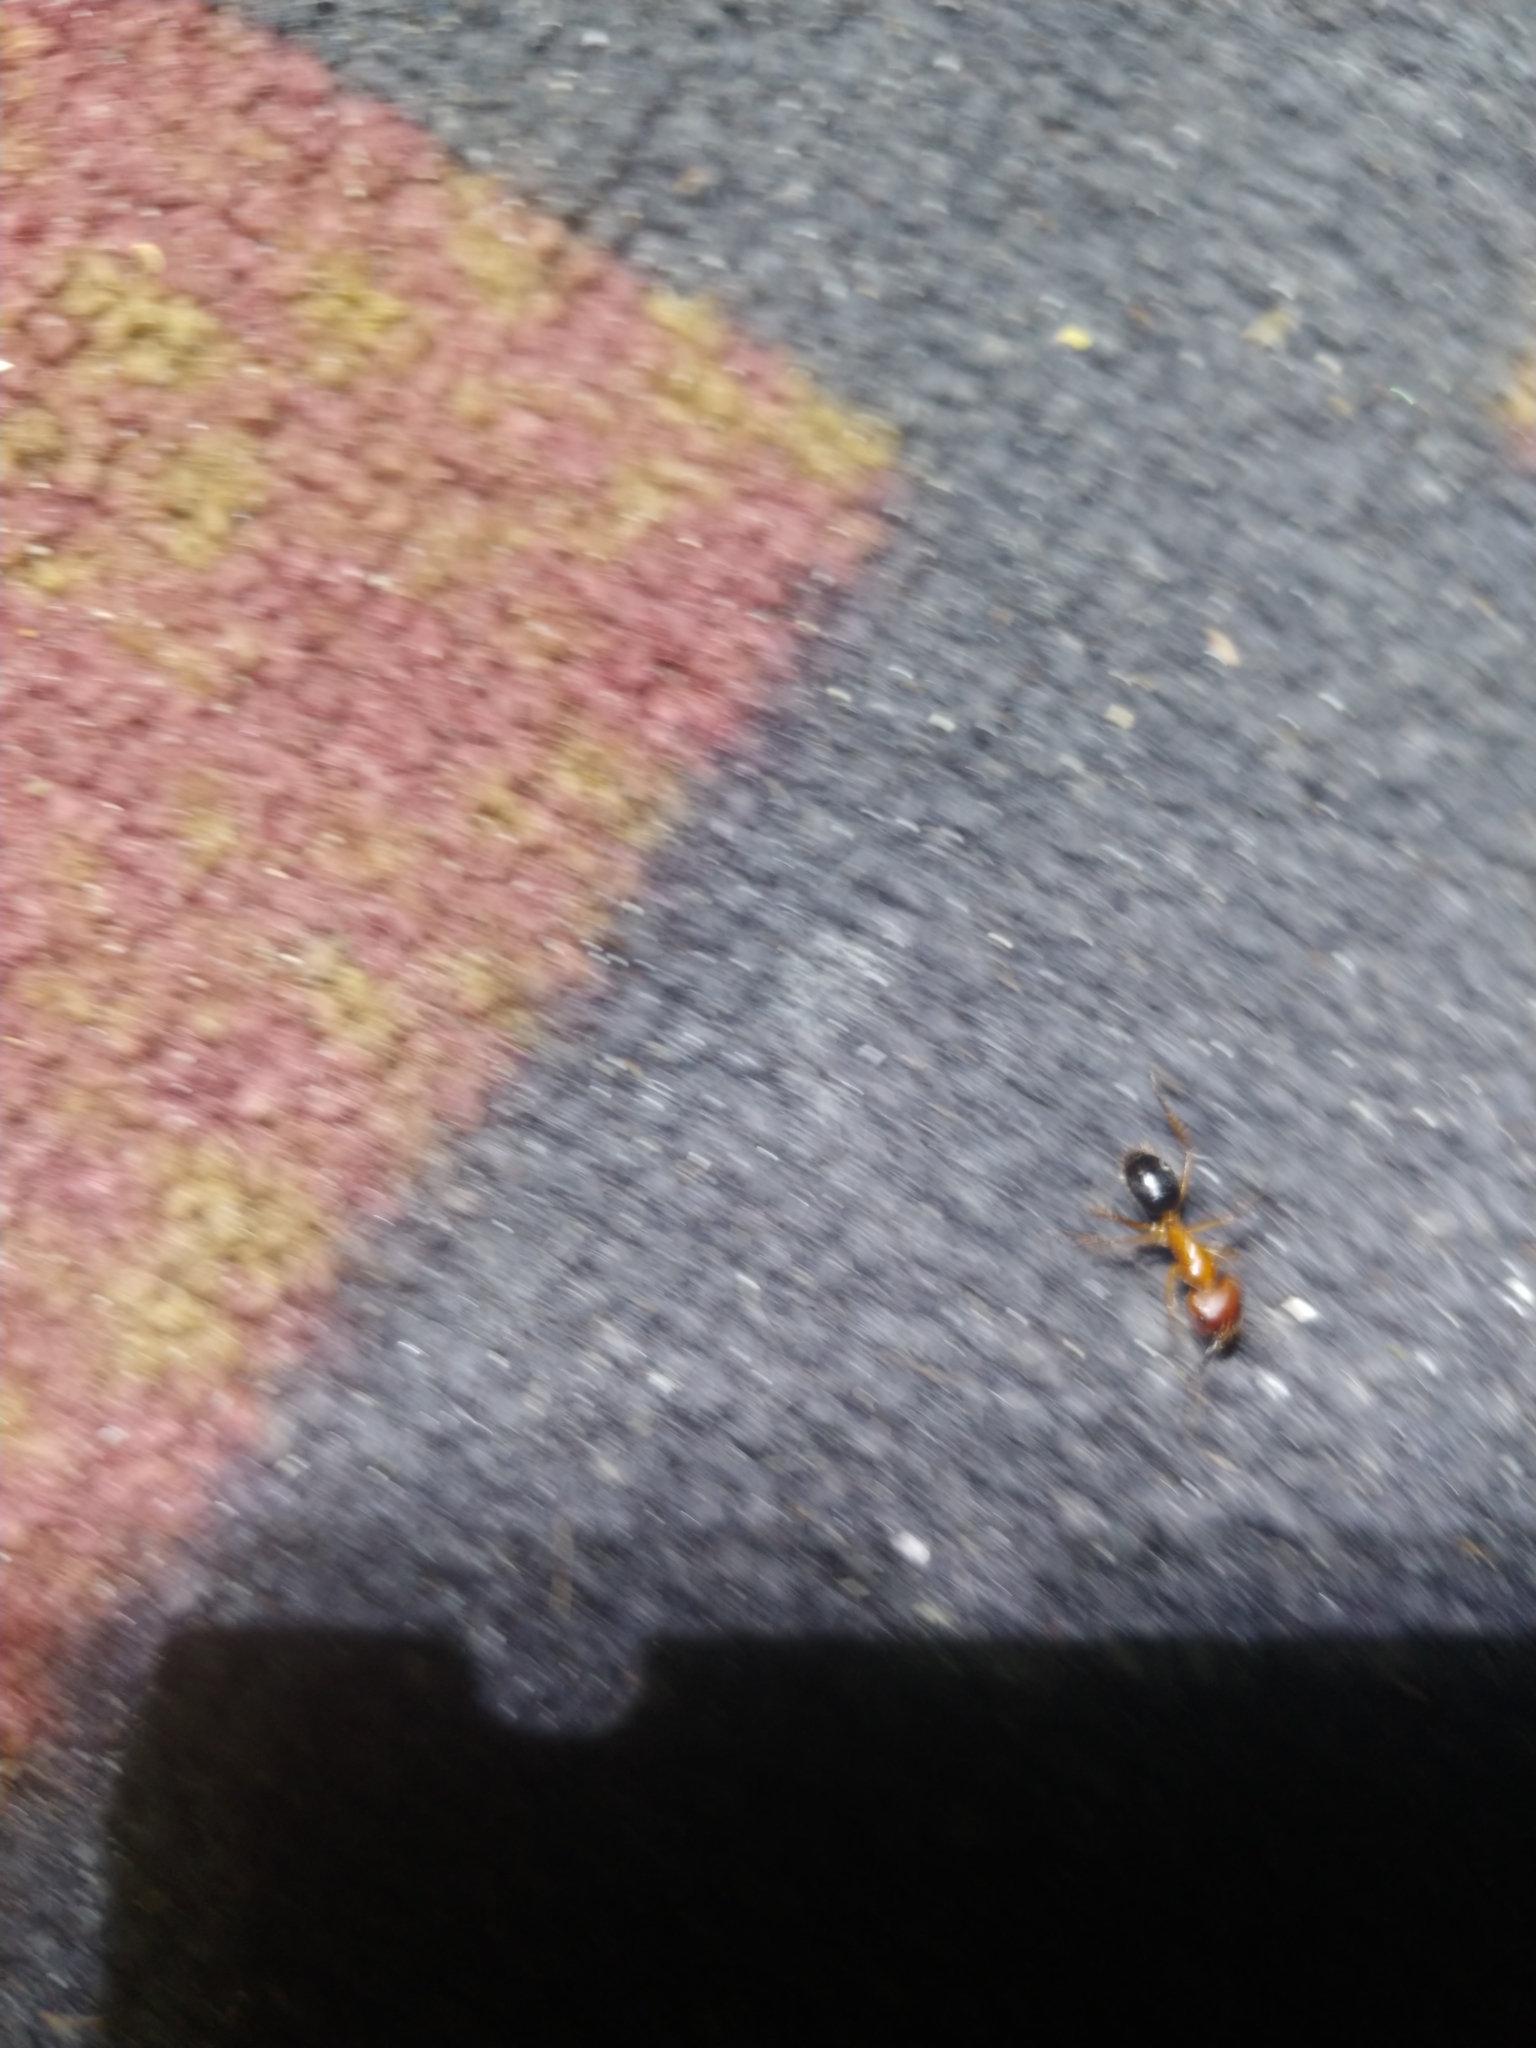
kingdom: Animalia
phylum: Arthropoda
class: Insecta
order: Hymenoptera
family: Formicidae
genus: Camponotus
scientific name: Camponotus floridanus
